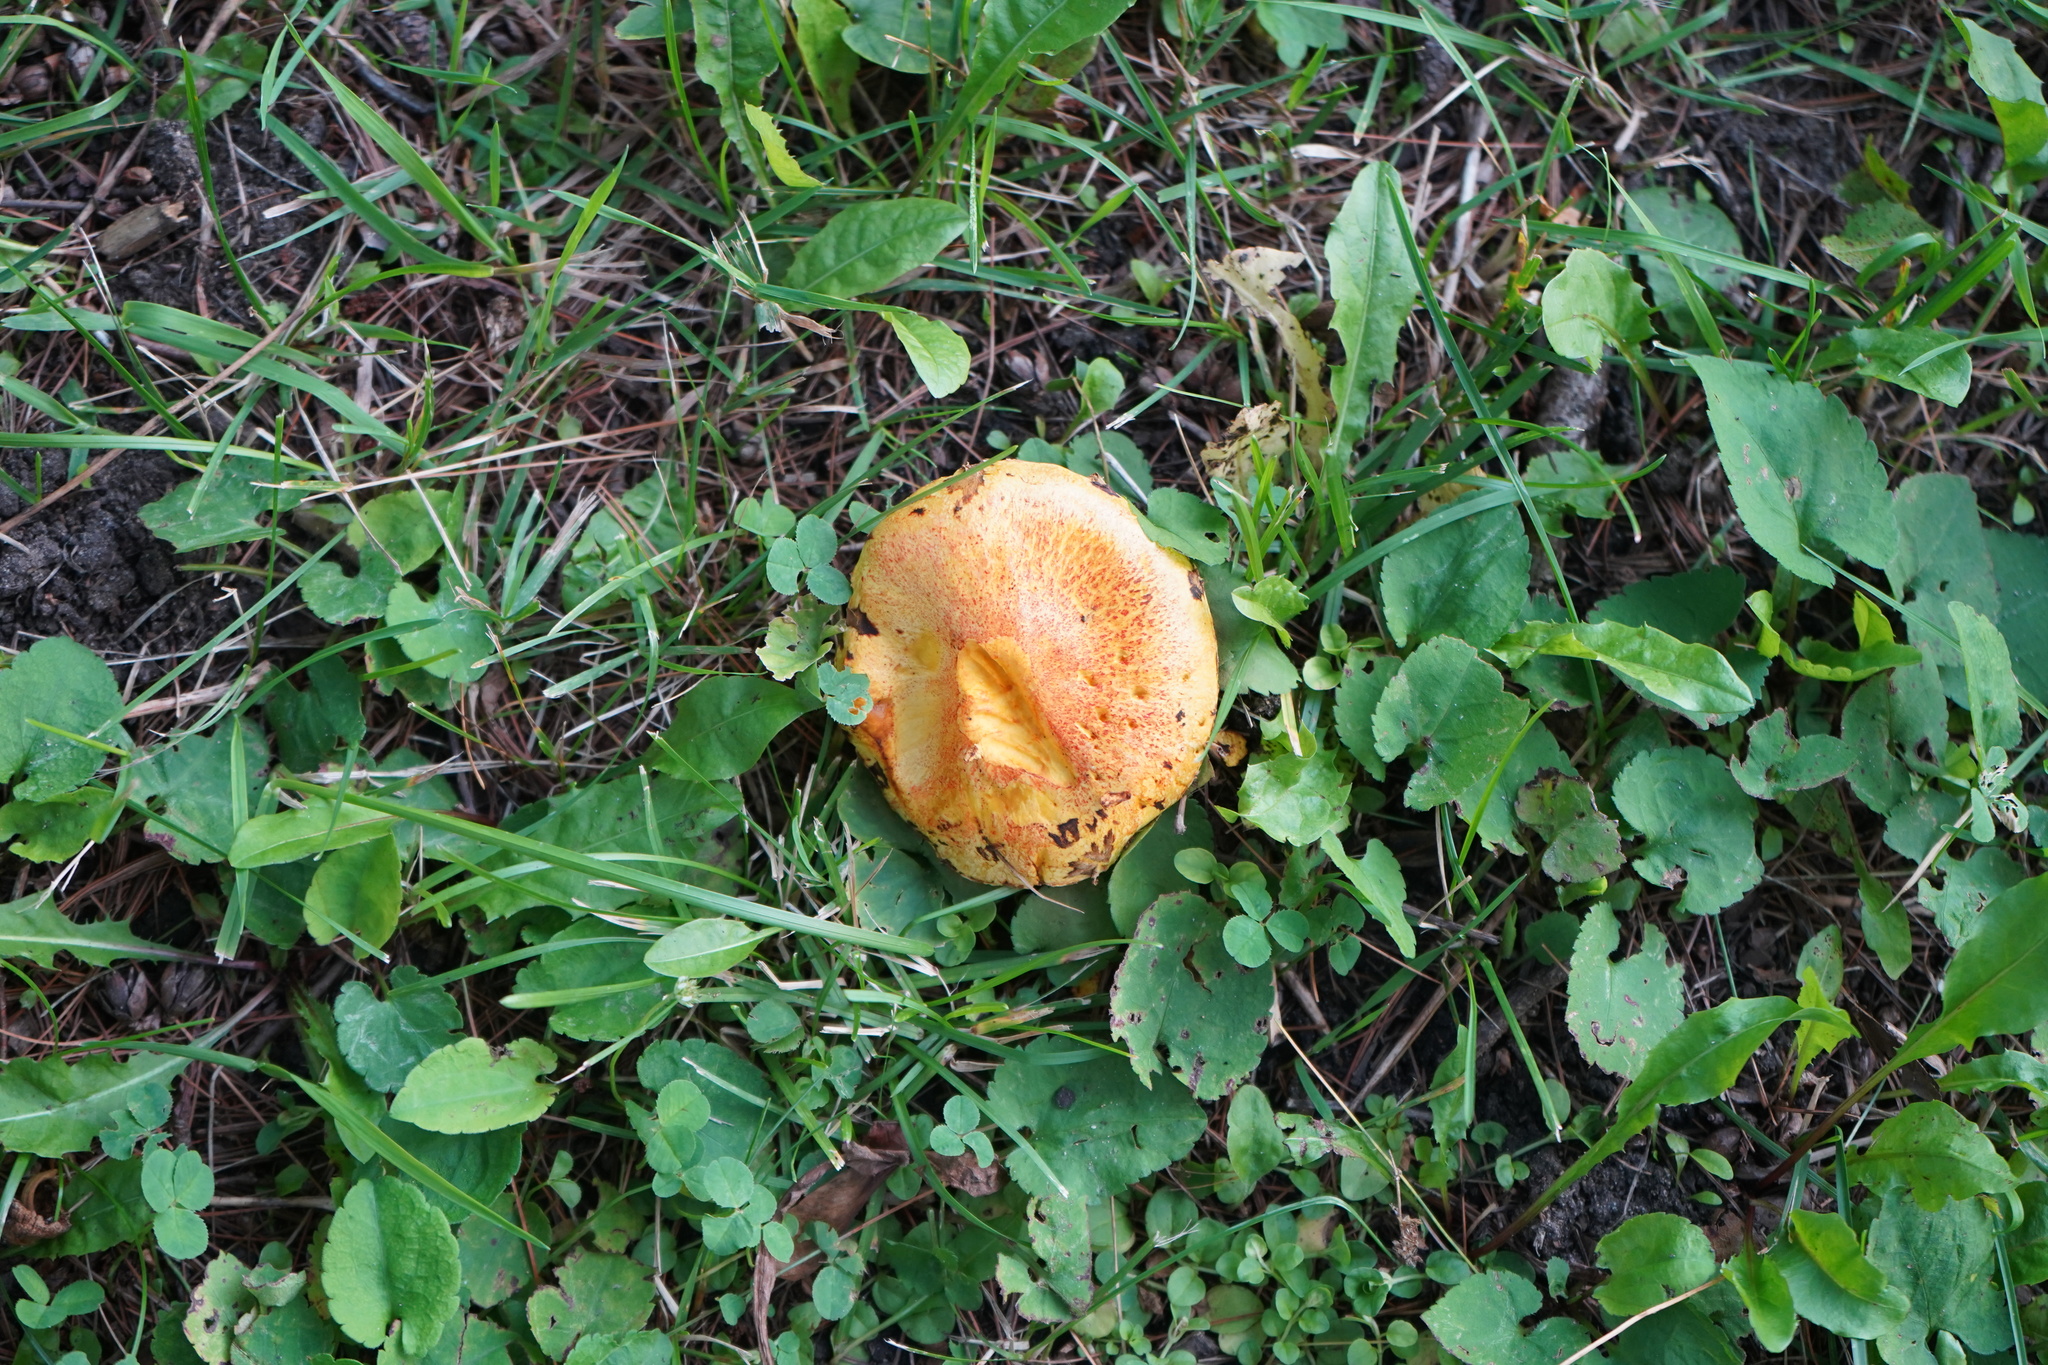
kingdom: Fungi
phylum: Basidiomycota
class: Agaricomycetes
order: Boletales
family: Suillaceae
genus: Suillus
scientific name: Suillus americanus
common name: Chicken fat mushroom
